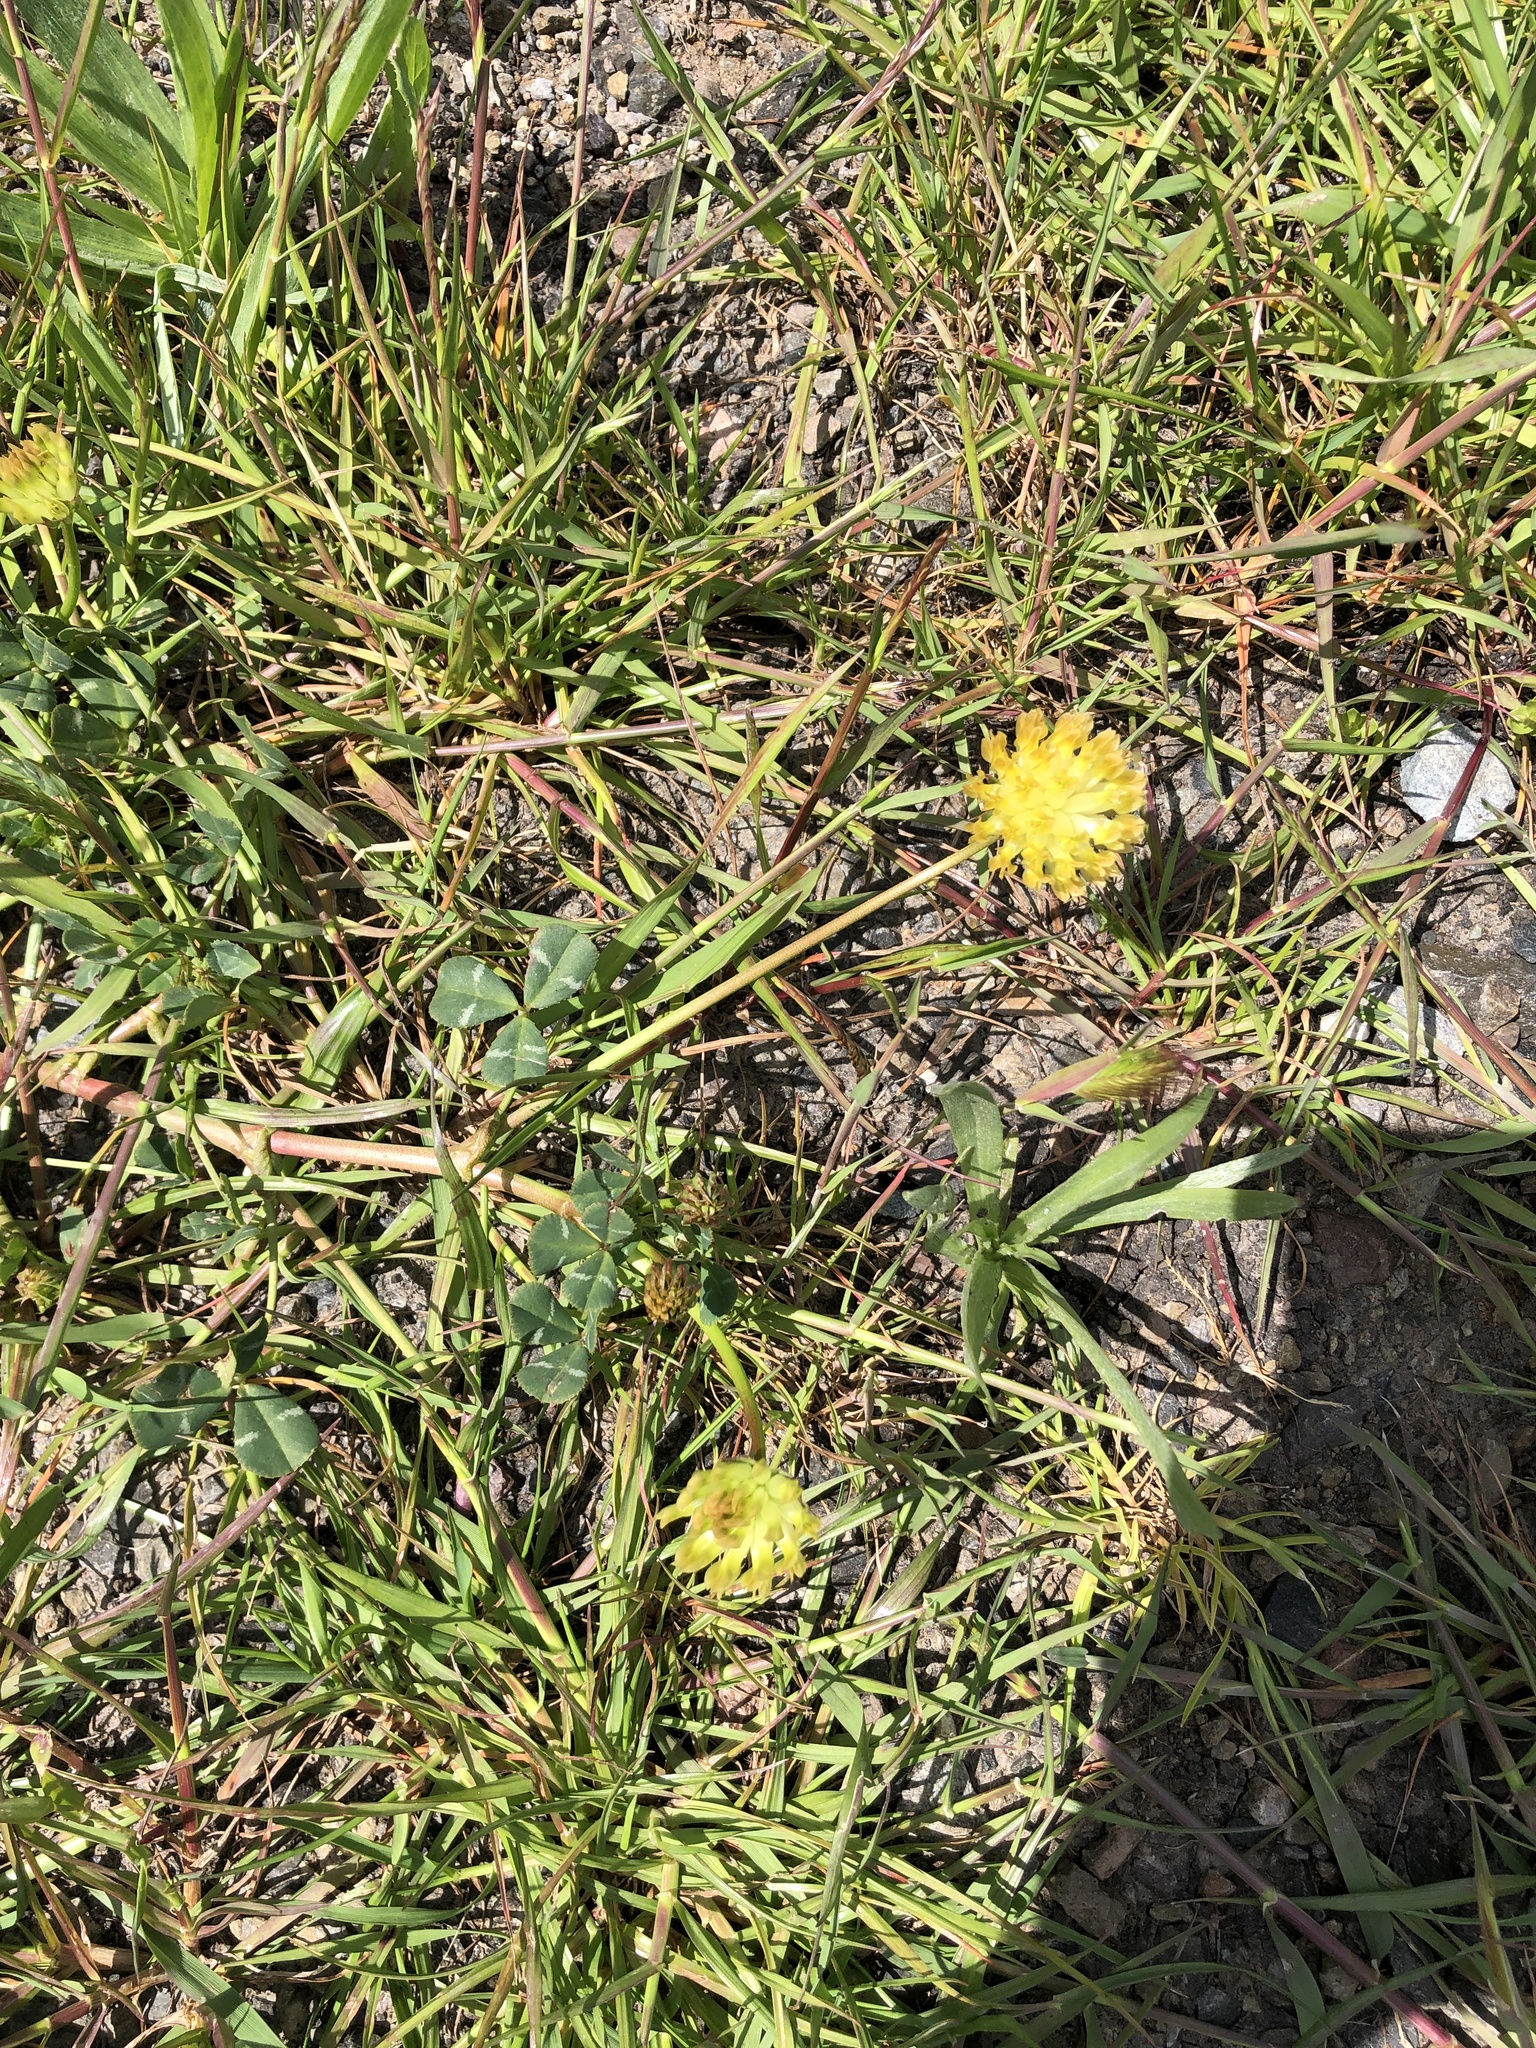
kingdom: Plantae
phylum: Tracheophyta
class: Magnoliopsida
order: Fabales
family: Fabaceae
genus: Trifolium
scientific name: Trifolium fucatum
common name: Puff clover
